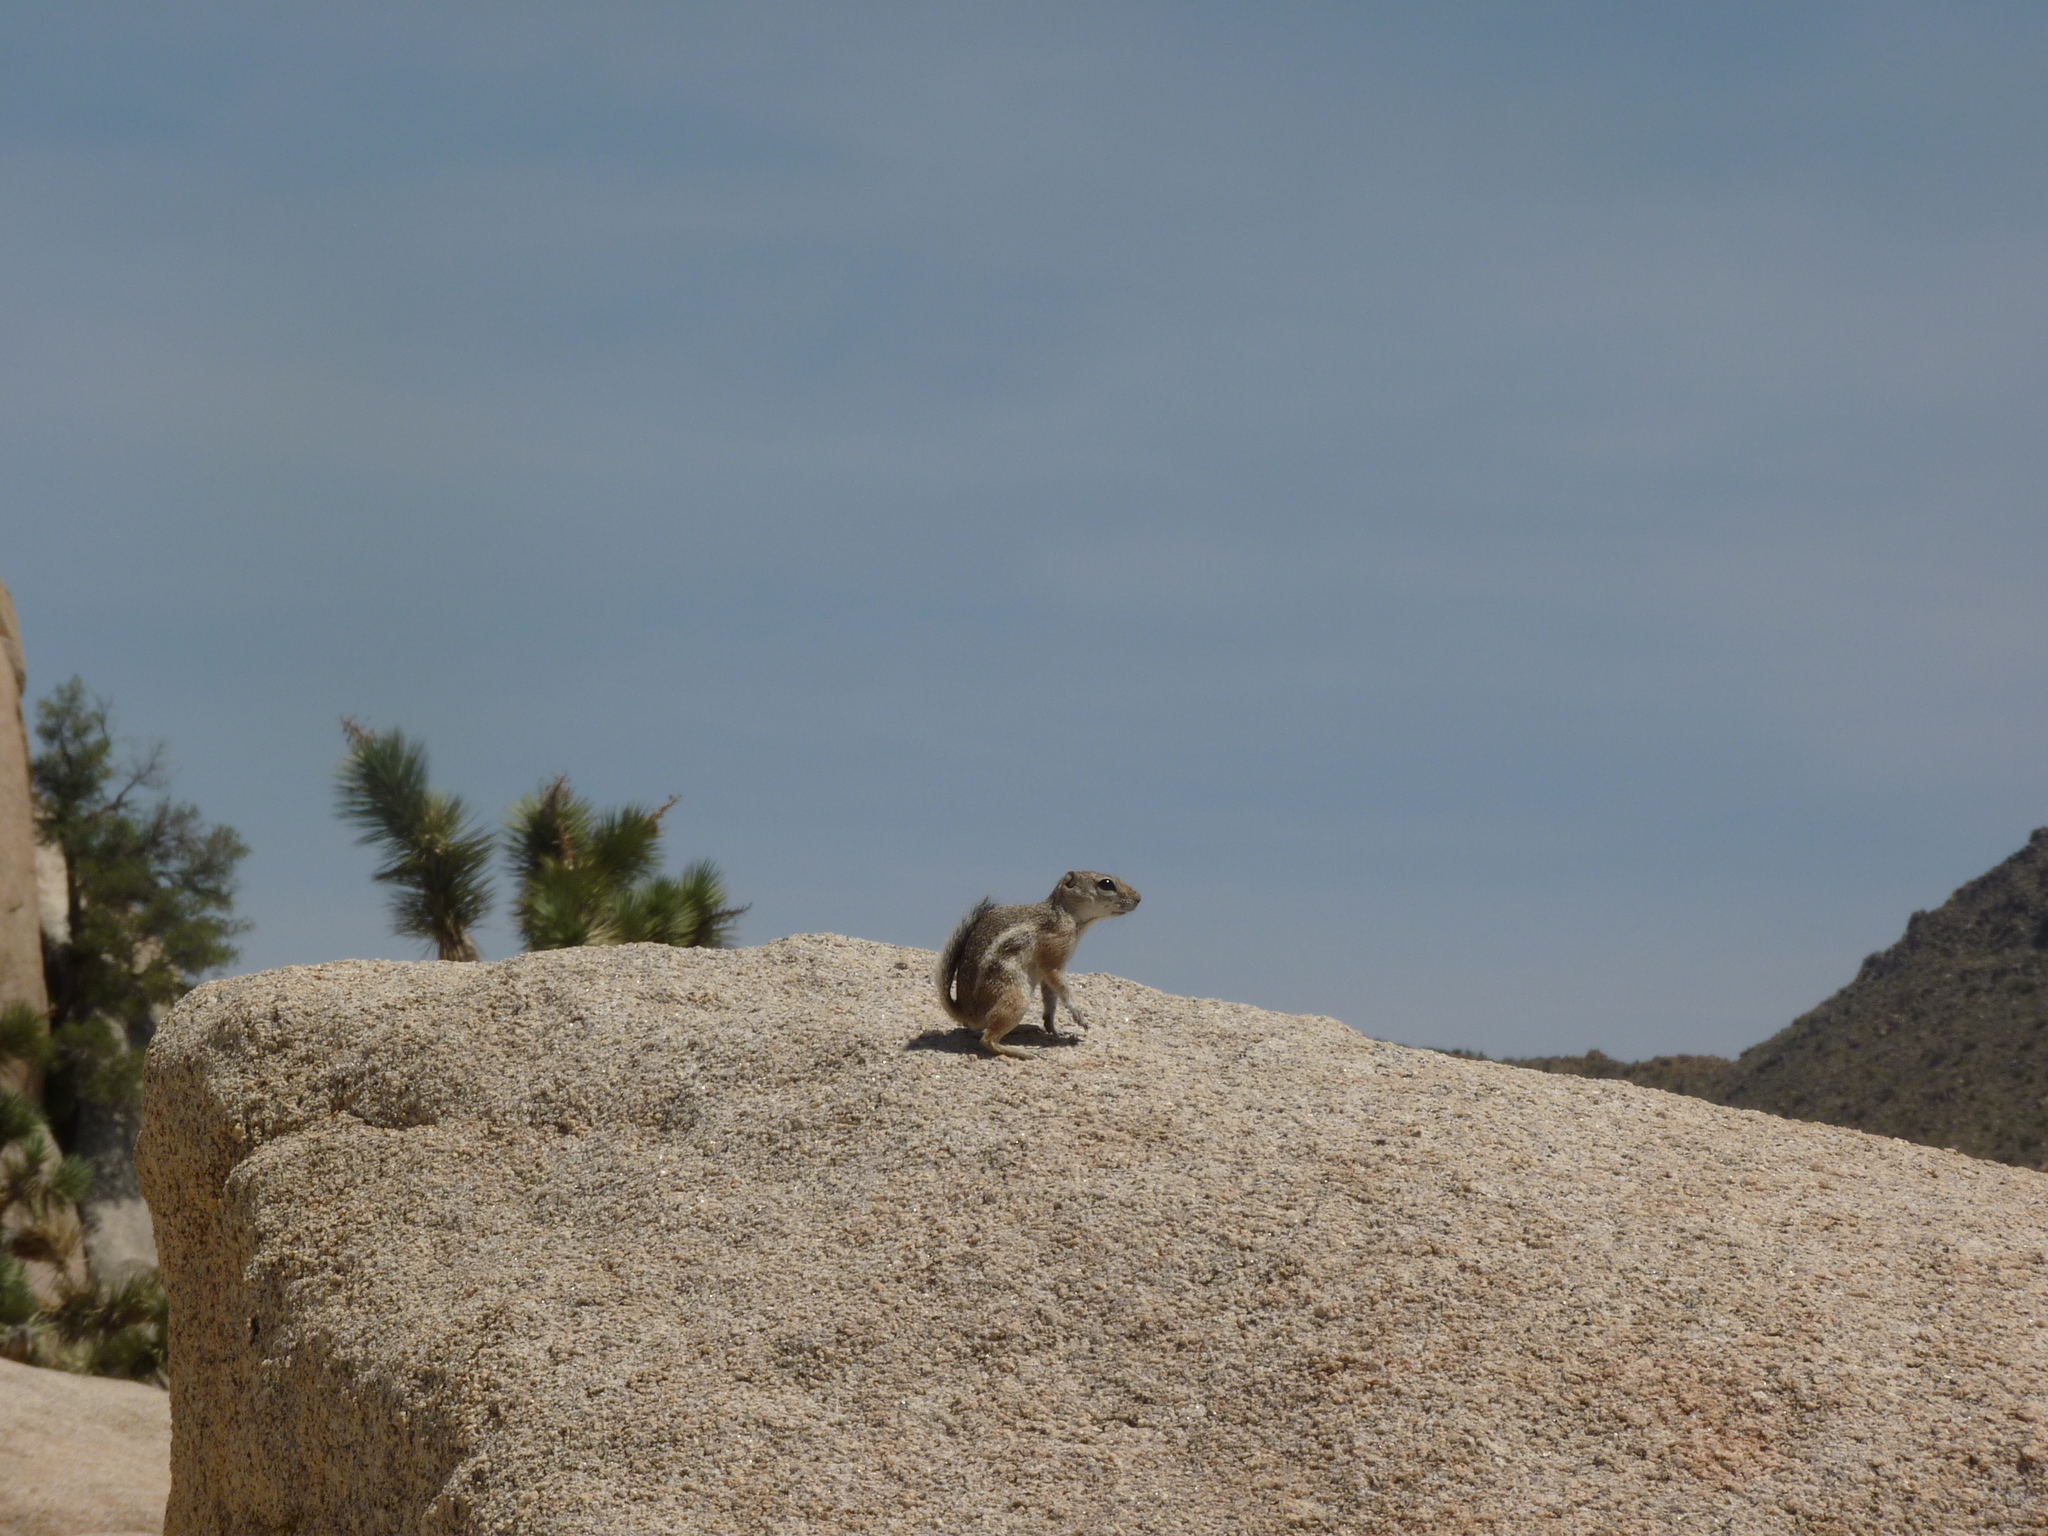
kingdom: Animalia
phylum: Chordata
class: Mammalia
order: Rodentia
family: Sciuridae
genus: Ammospermophilus
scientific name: Ammospermophilus leucurus
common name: White-tailed antelope squirrel
